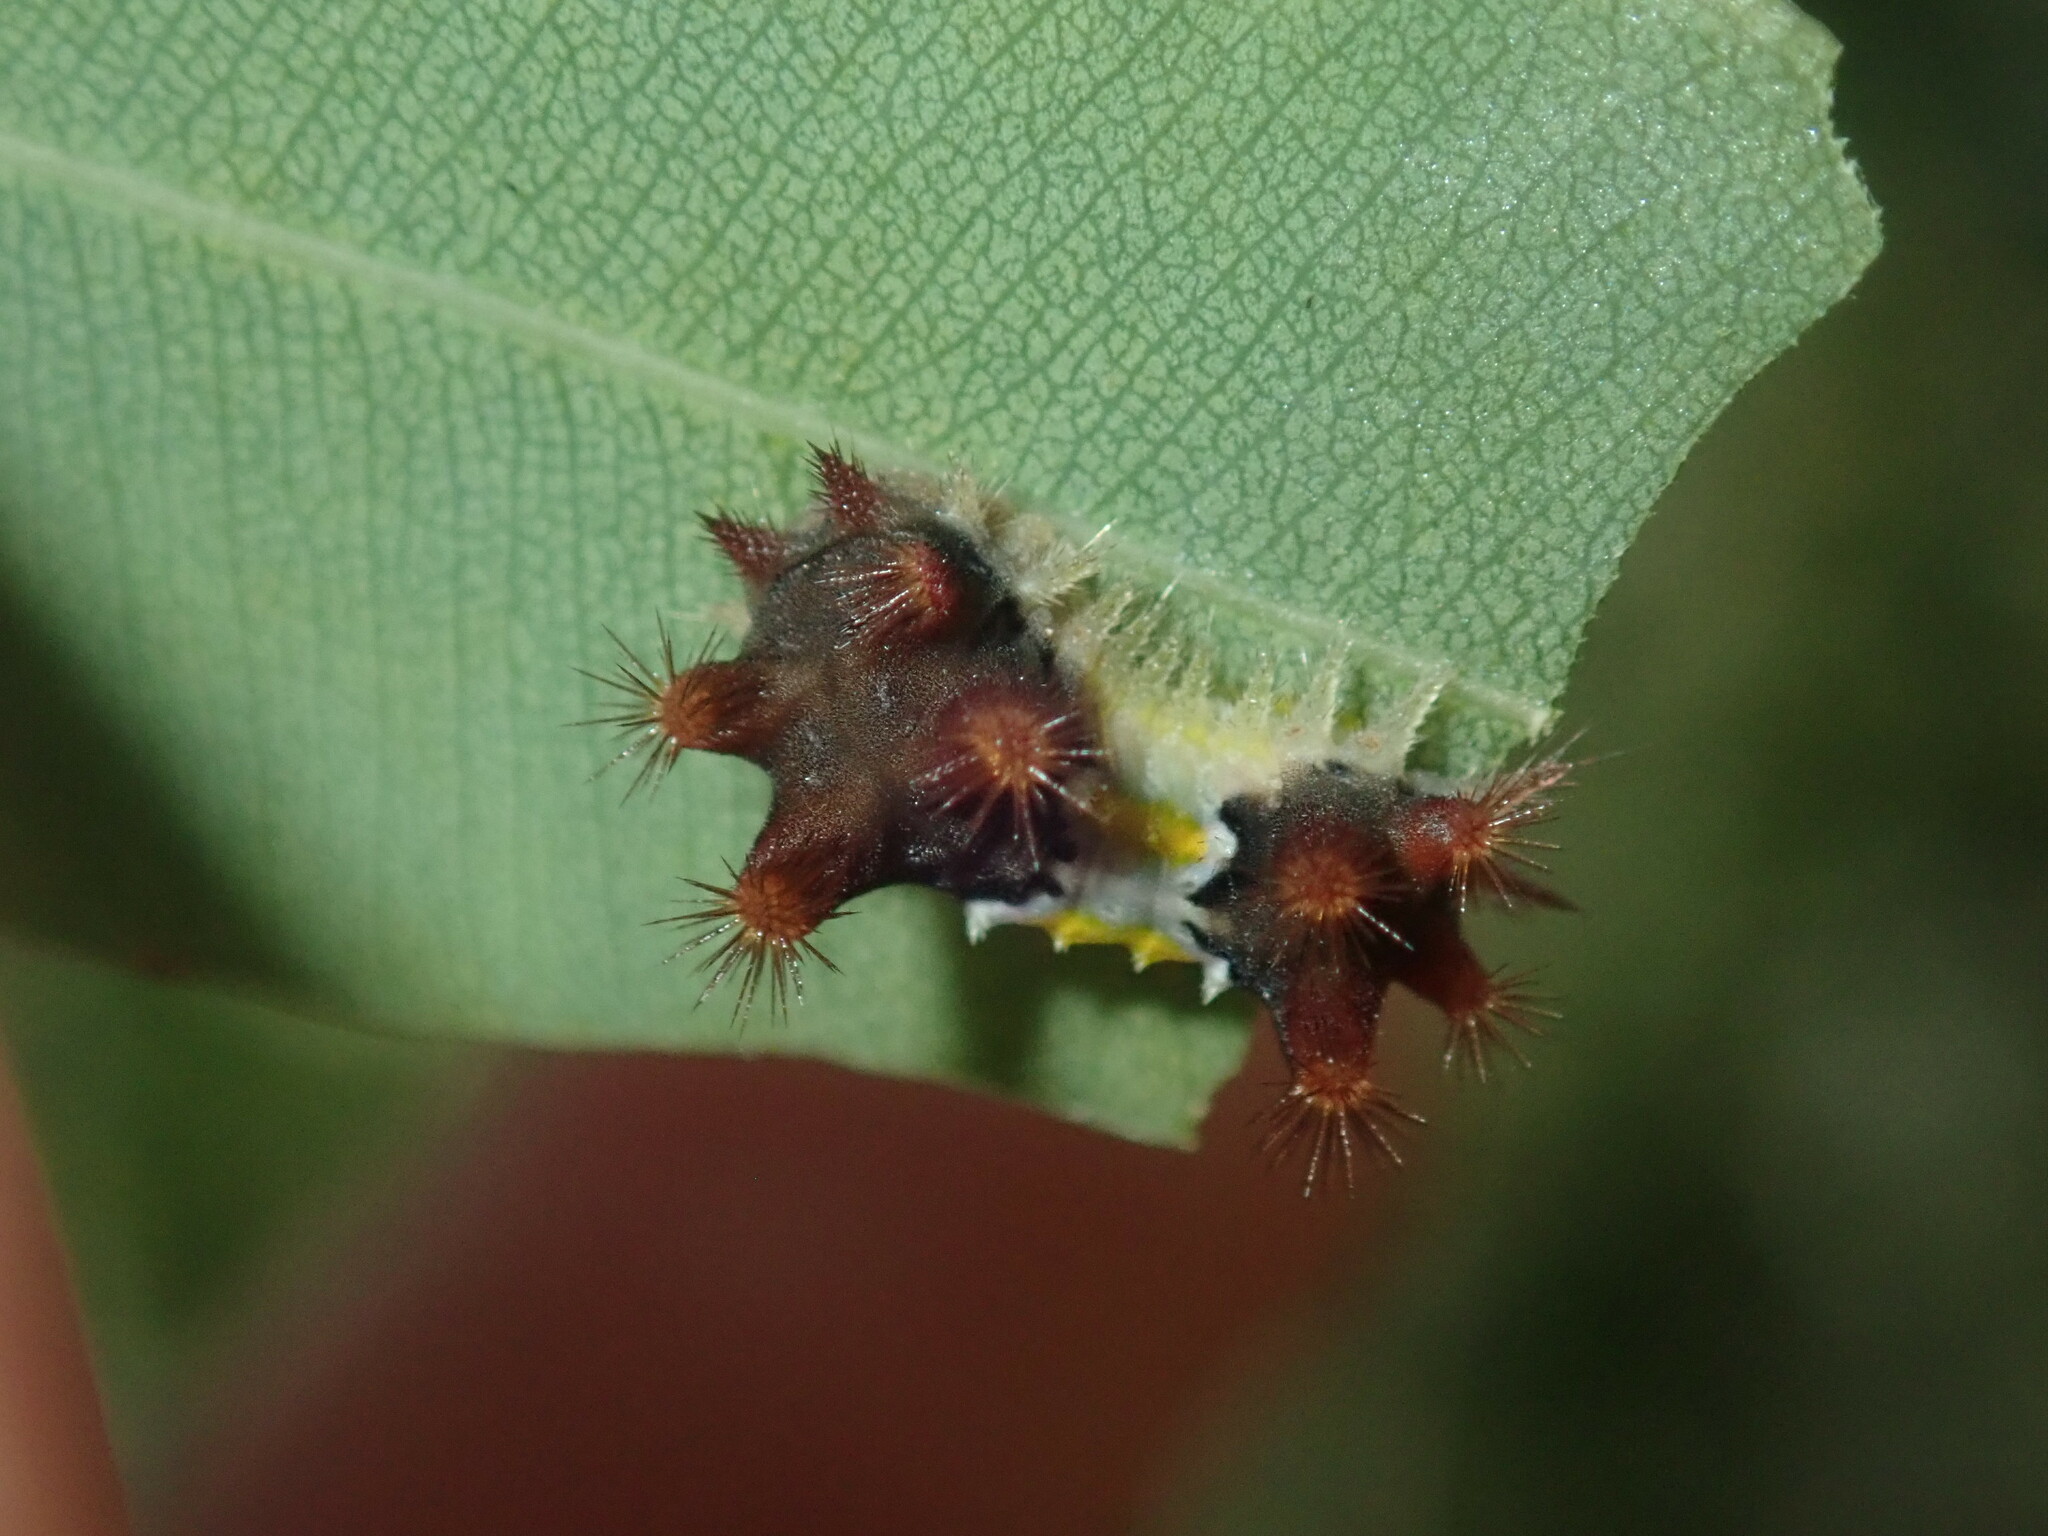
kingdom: Animalia
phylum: Arthropoda
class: Insecta
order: Lepidoptera
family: Limacodidae
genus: Doratifera
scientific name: Doratifera vulnerans
